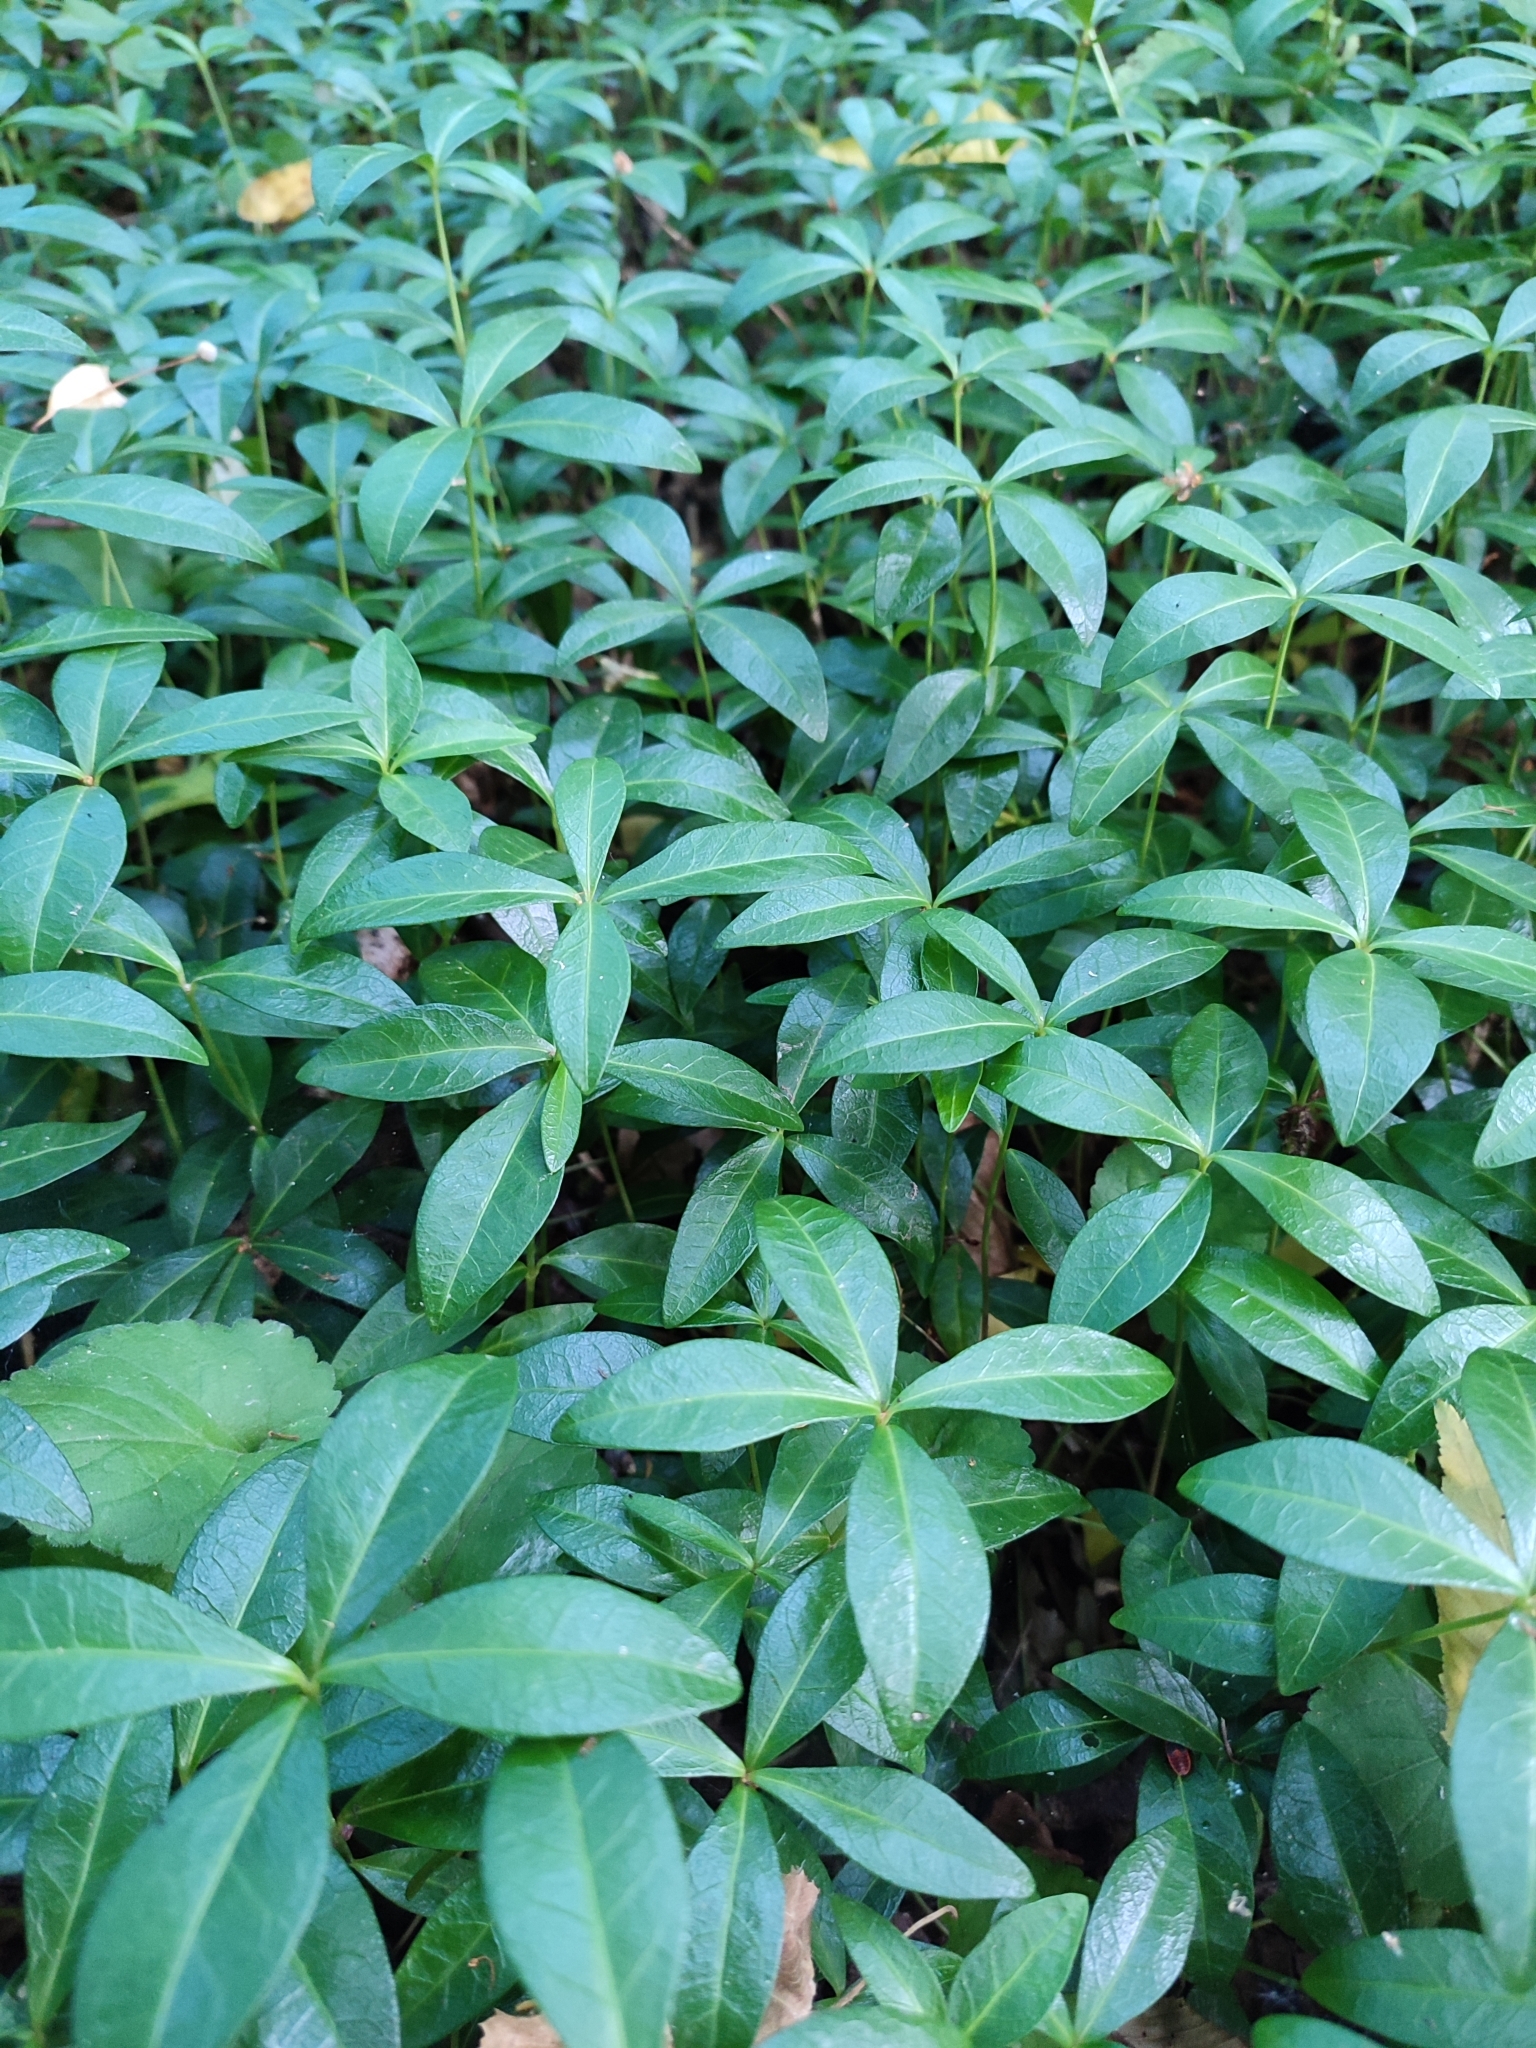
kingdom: Plantae
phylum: Tracheophyta
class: Magnoliopsida
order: Gentianales
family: Apocynaceae
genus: Vinca
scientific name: Vinca minor
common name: Lesser periwinkle
